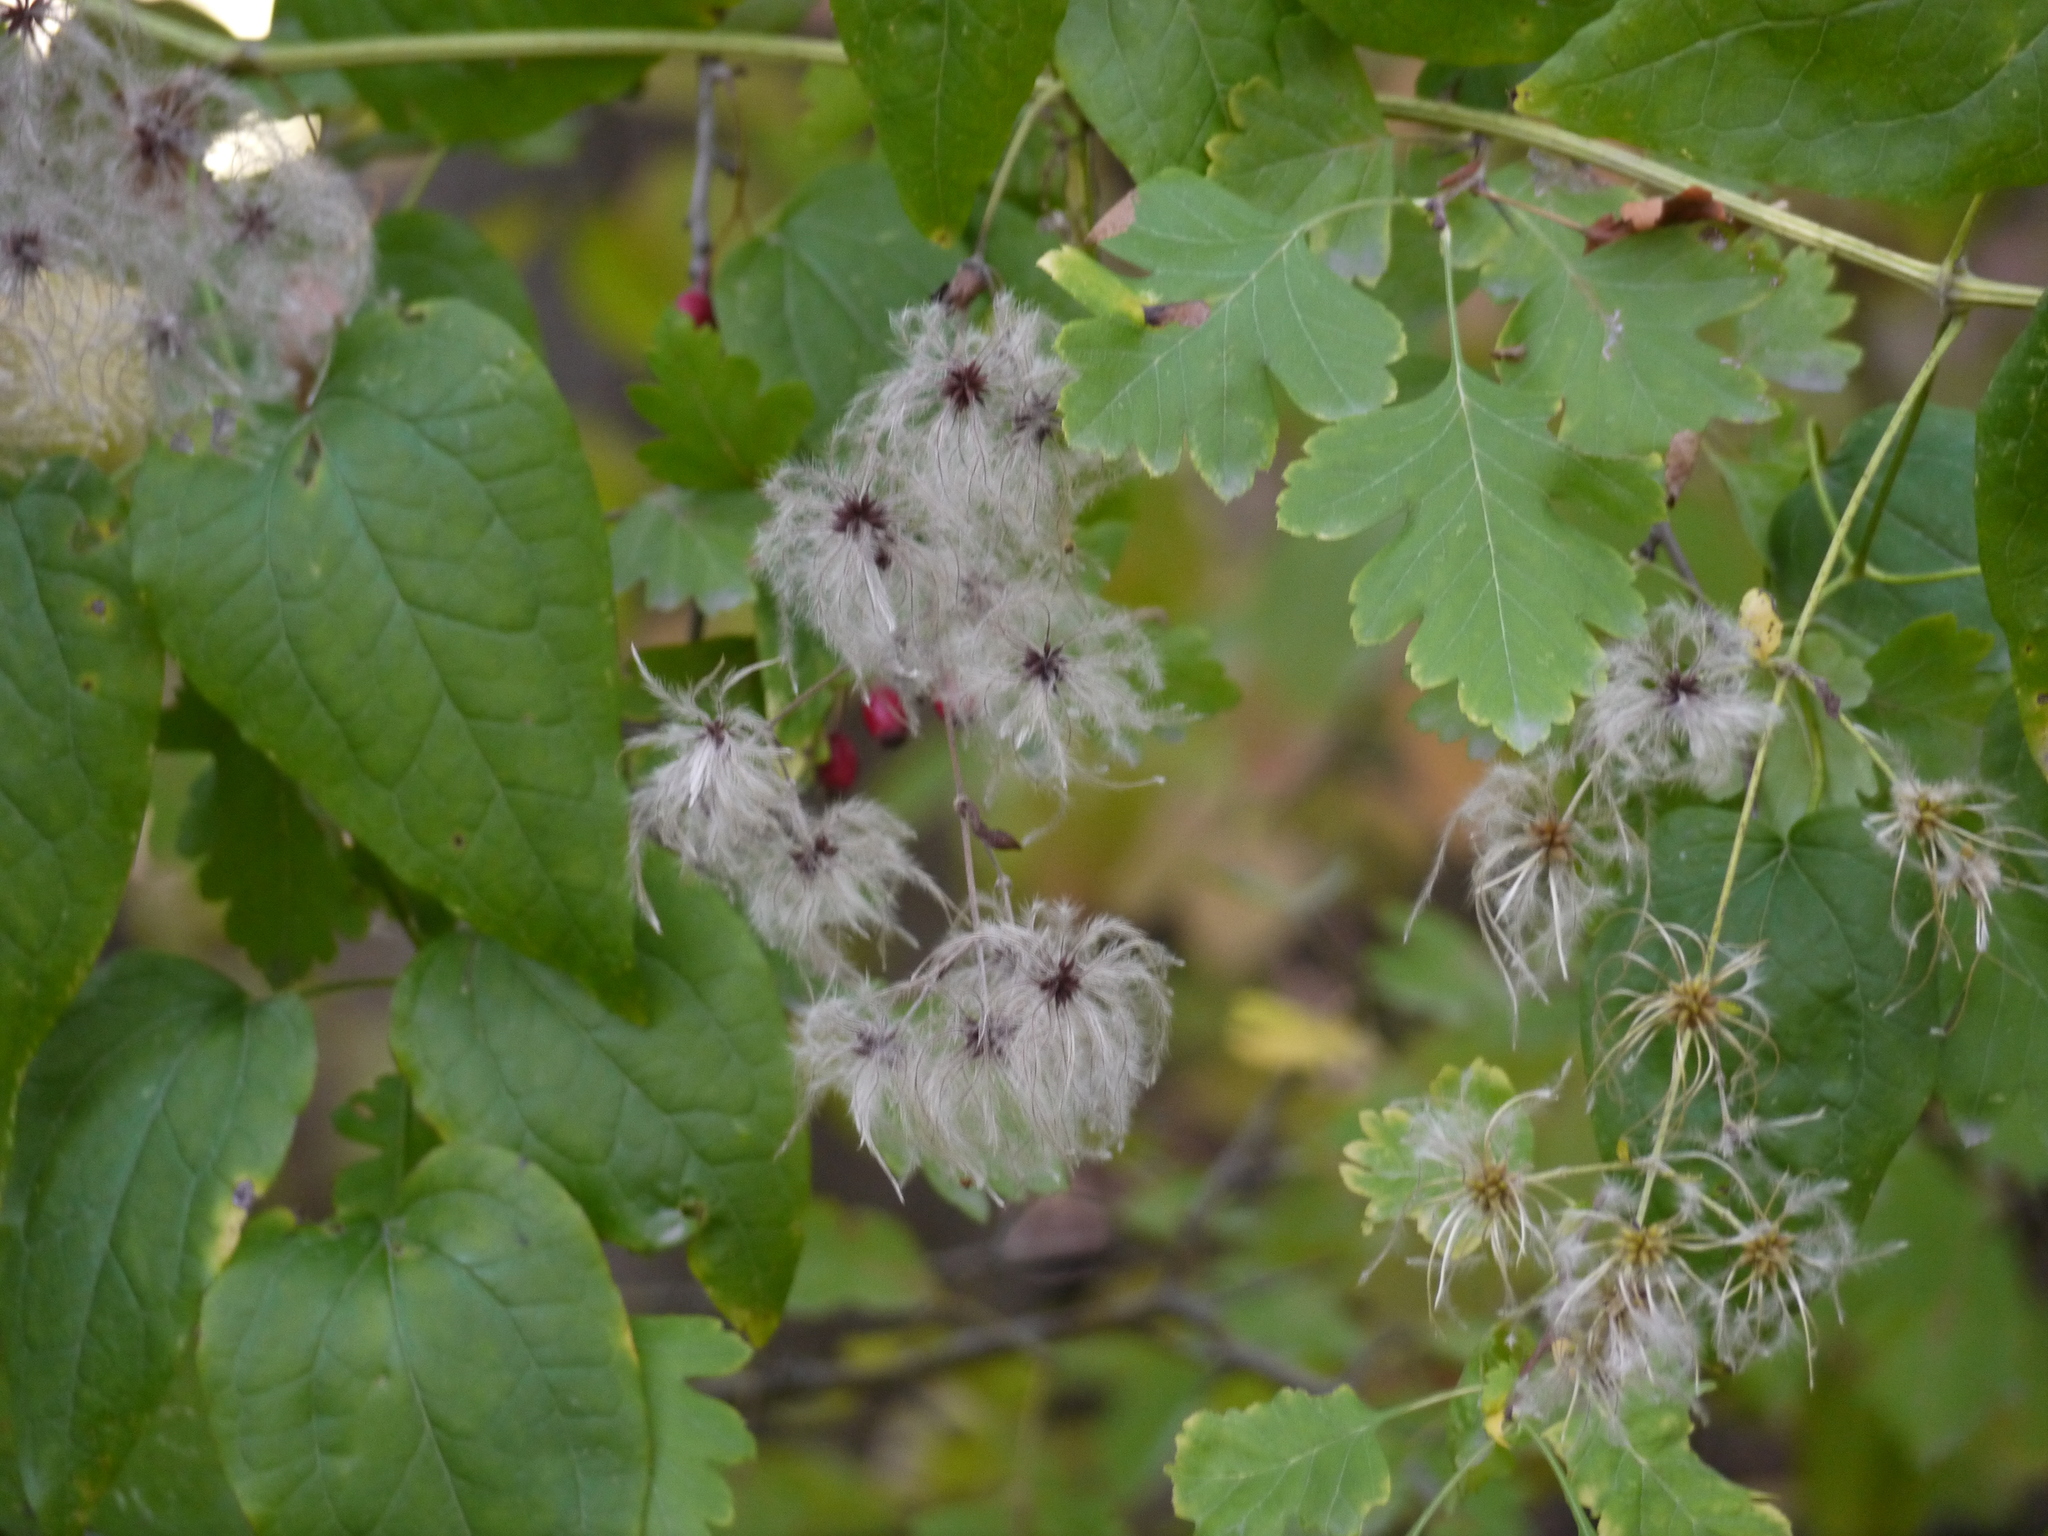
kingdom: Plantae
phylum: Tracheophyta
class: Magnoliopsida
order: Ranunculales
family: Ranunculaceae
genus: Clematis
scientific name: Clematis vitalba
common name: Evergreen clematis
